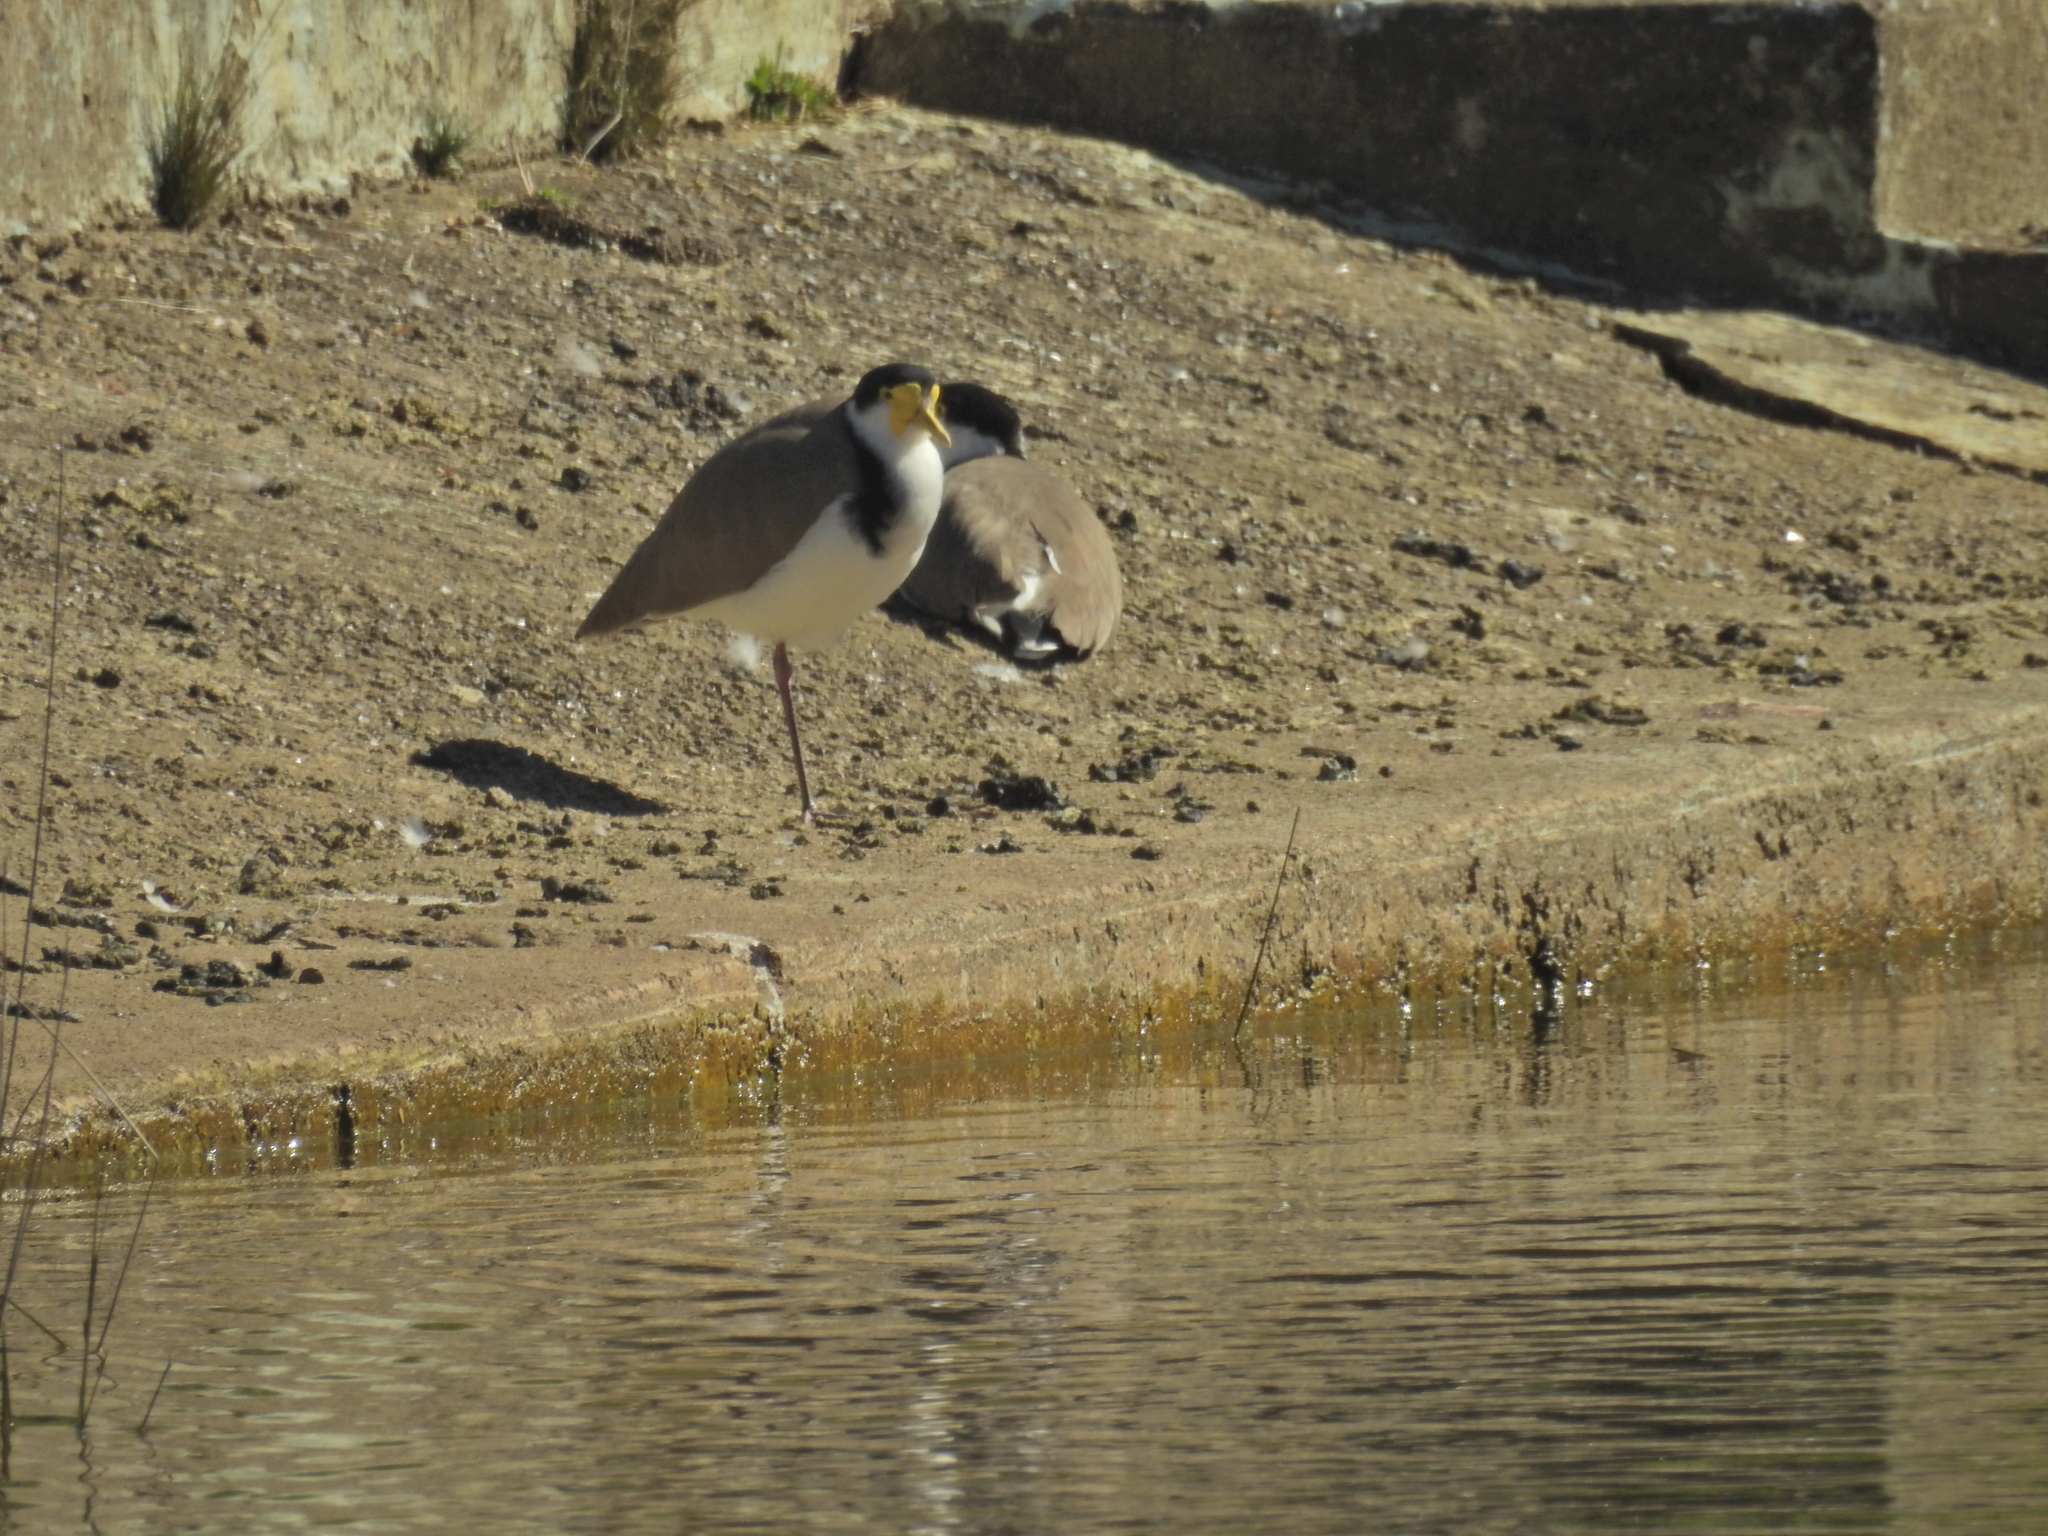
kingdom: Animalia
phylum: Chordata
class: Aves
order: Charadriiformes
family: Charadriidae
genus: Vanellus
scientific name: Vanellus miles
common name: Masked lapwing
